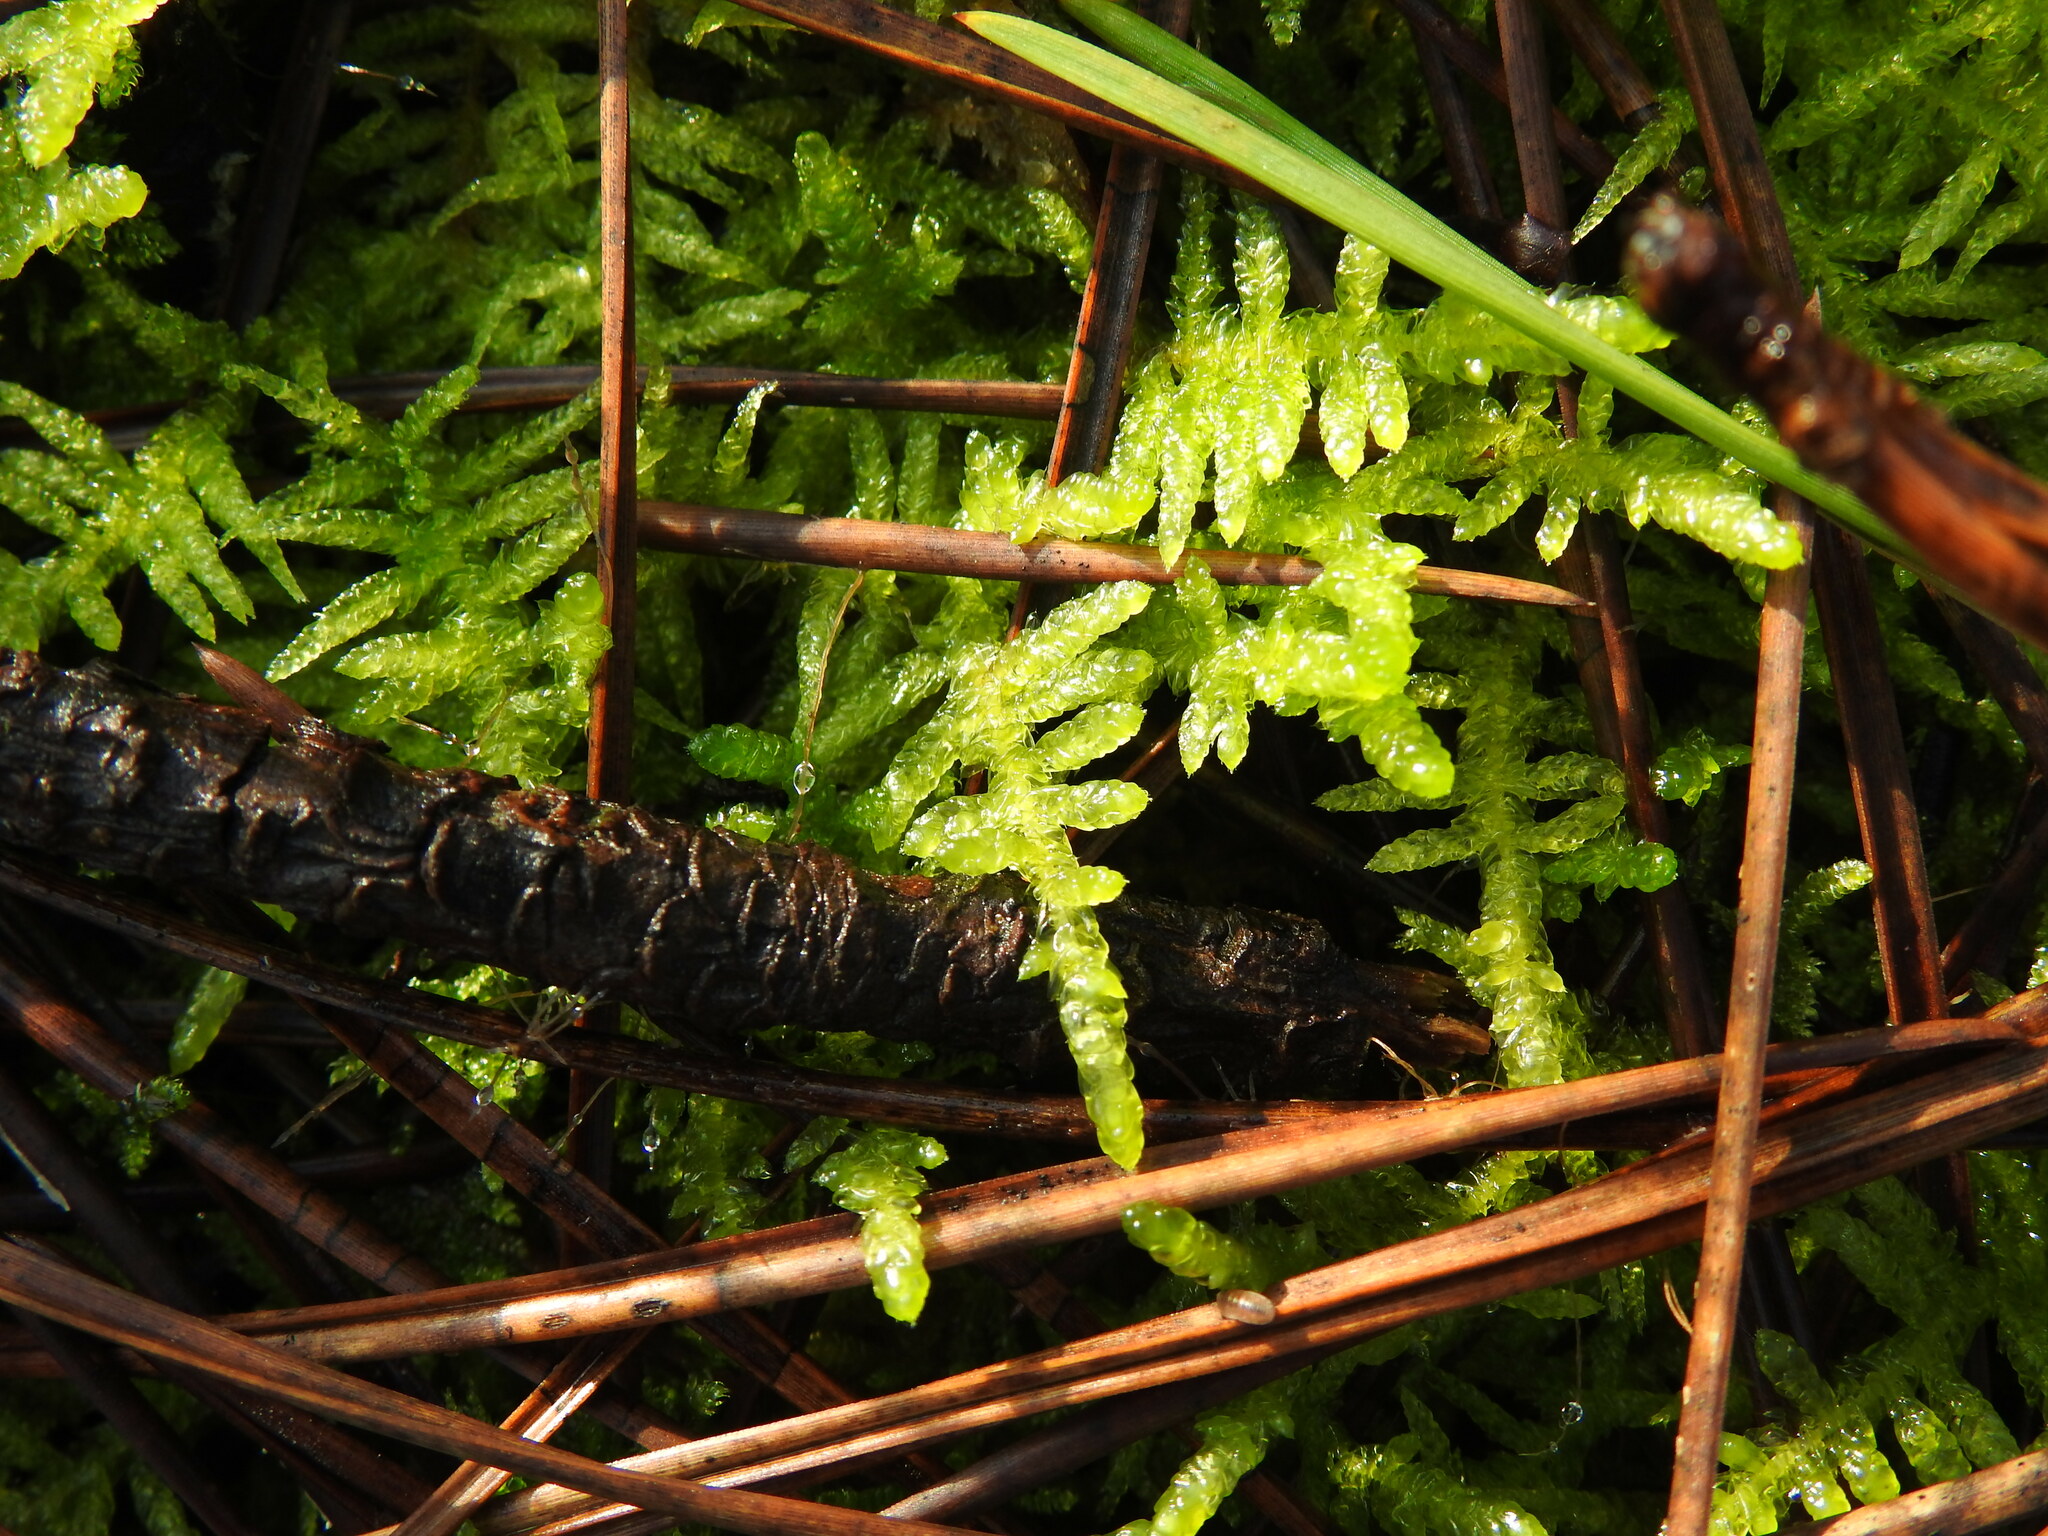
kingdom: Plantae
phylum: Bryophyta
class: Bryopsida
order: Hypnales
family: Brachytheciaceae
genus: Pseudoscleropodium
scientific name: Pseudoscleropodium purum
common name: Neat feather-moss
